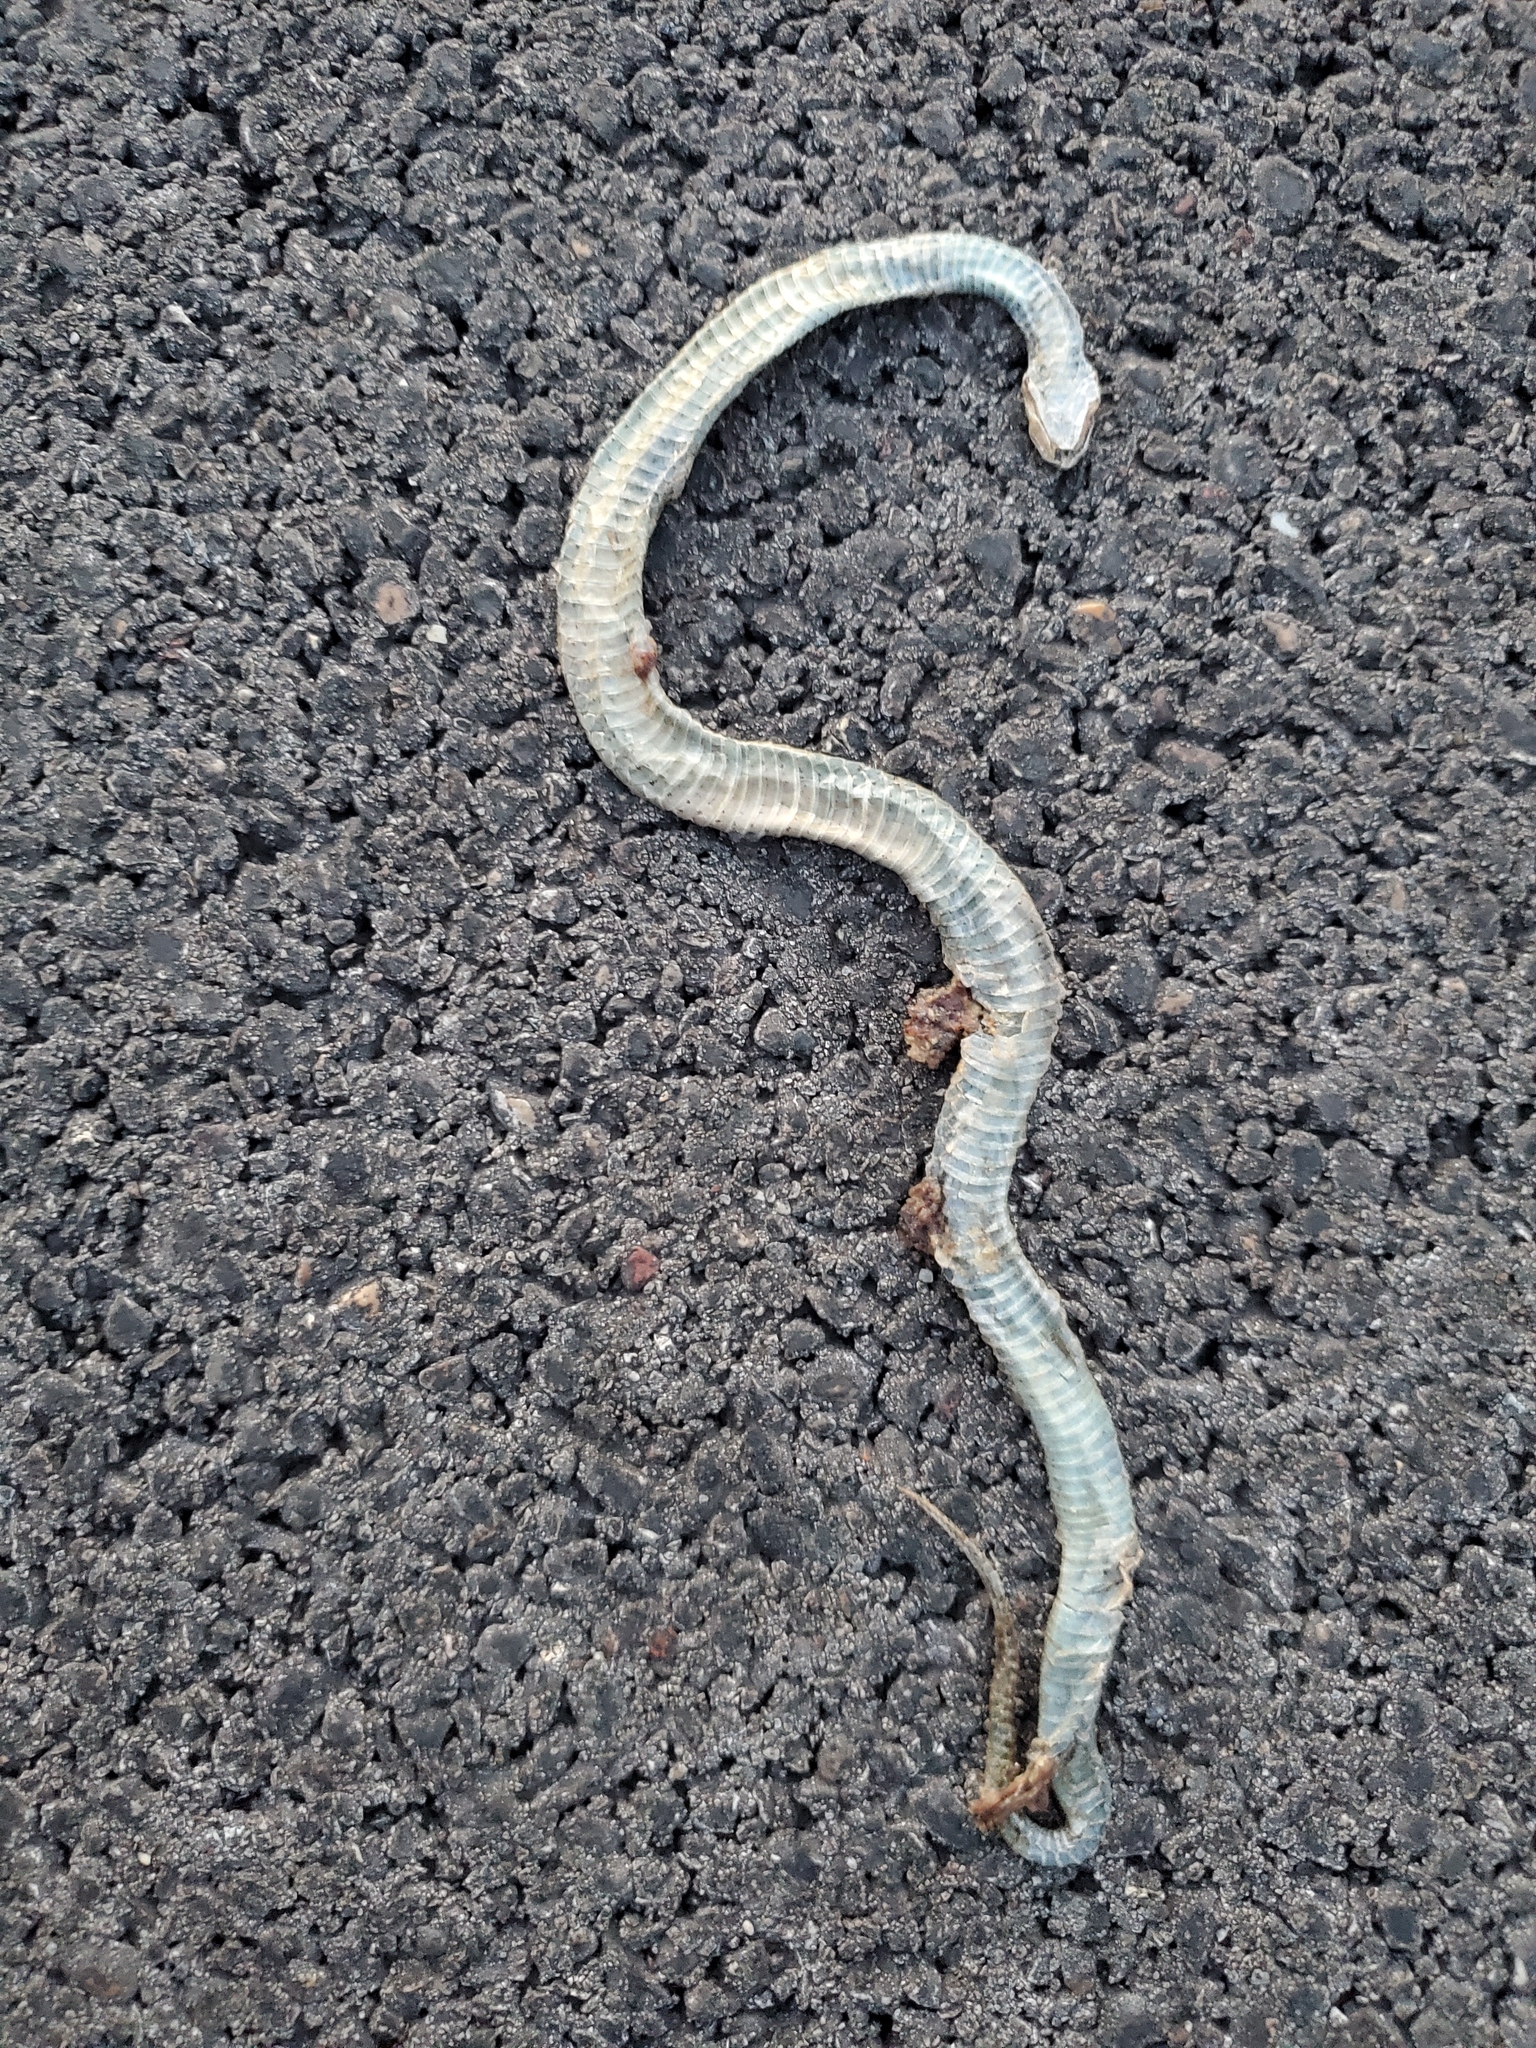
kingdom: Animalia
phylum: Chordata
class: Squamata
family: Colubridae
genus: Storeria
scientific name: Storeria dekayi
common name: (dekay’s) brown snake
